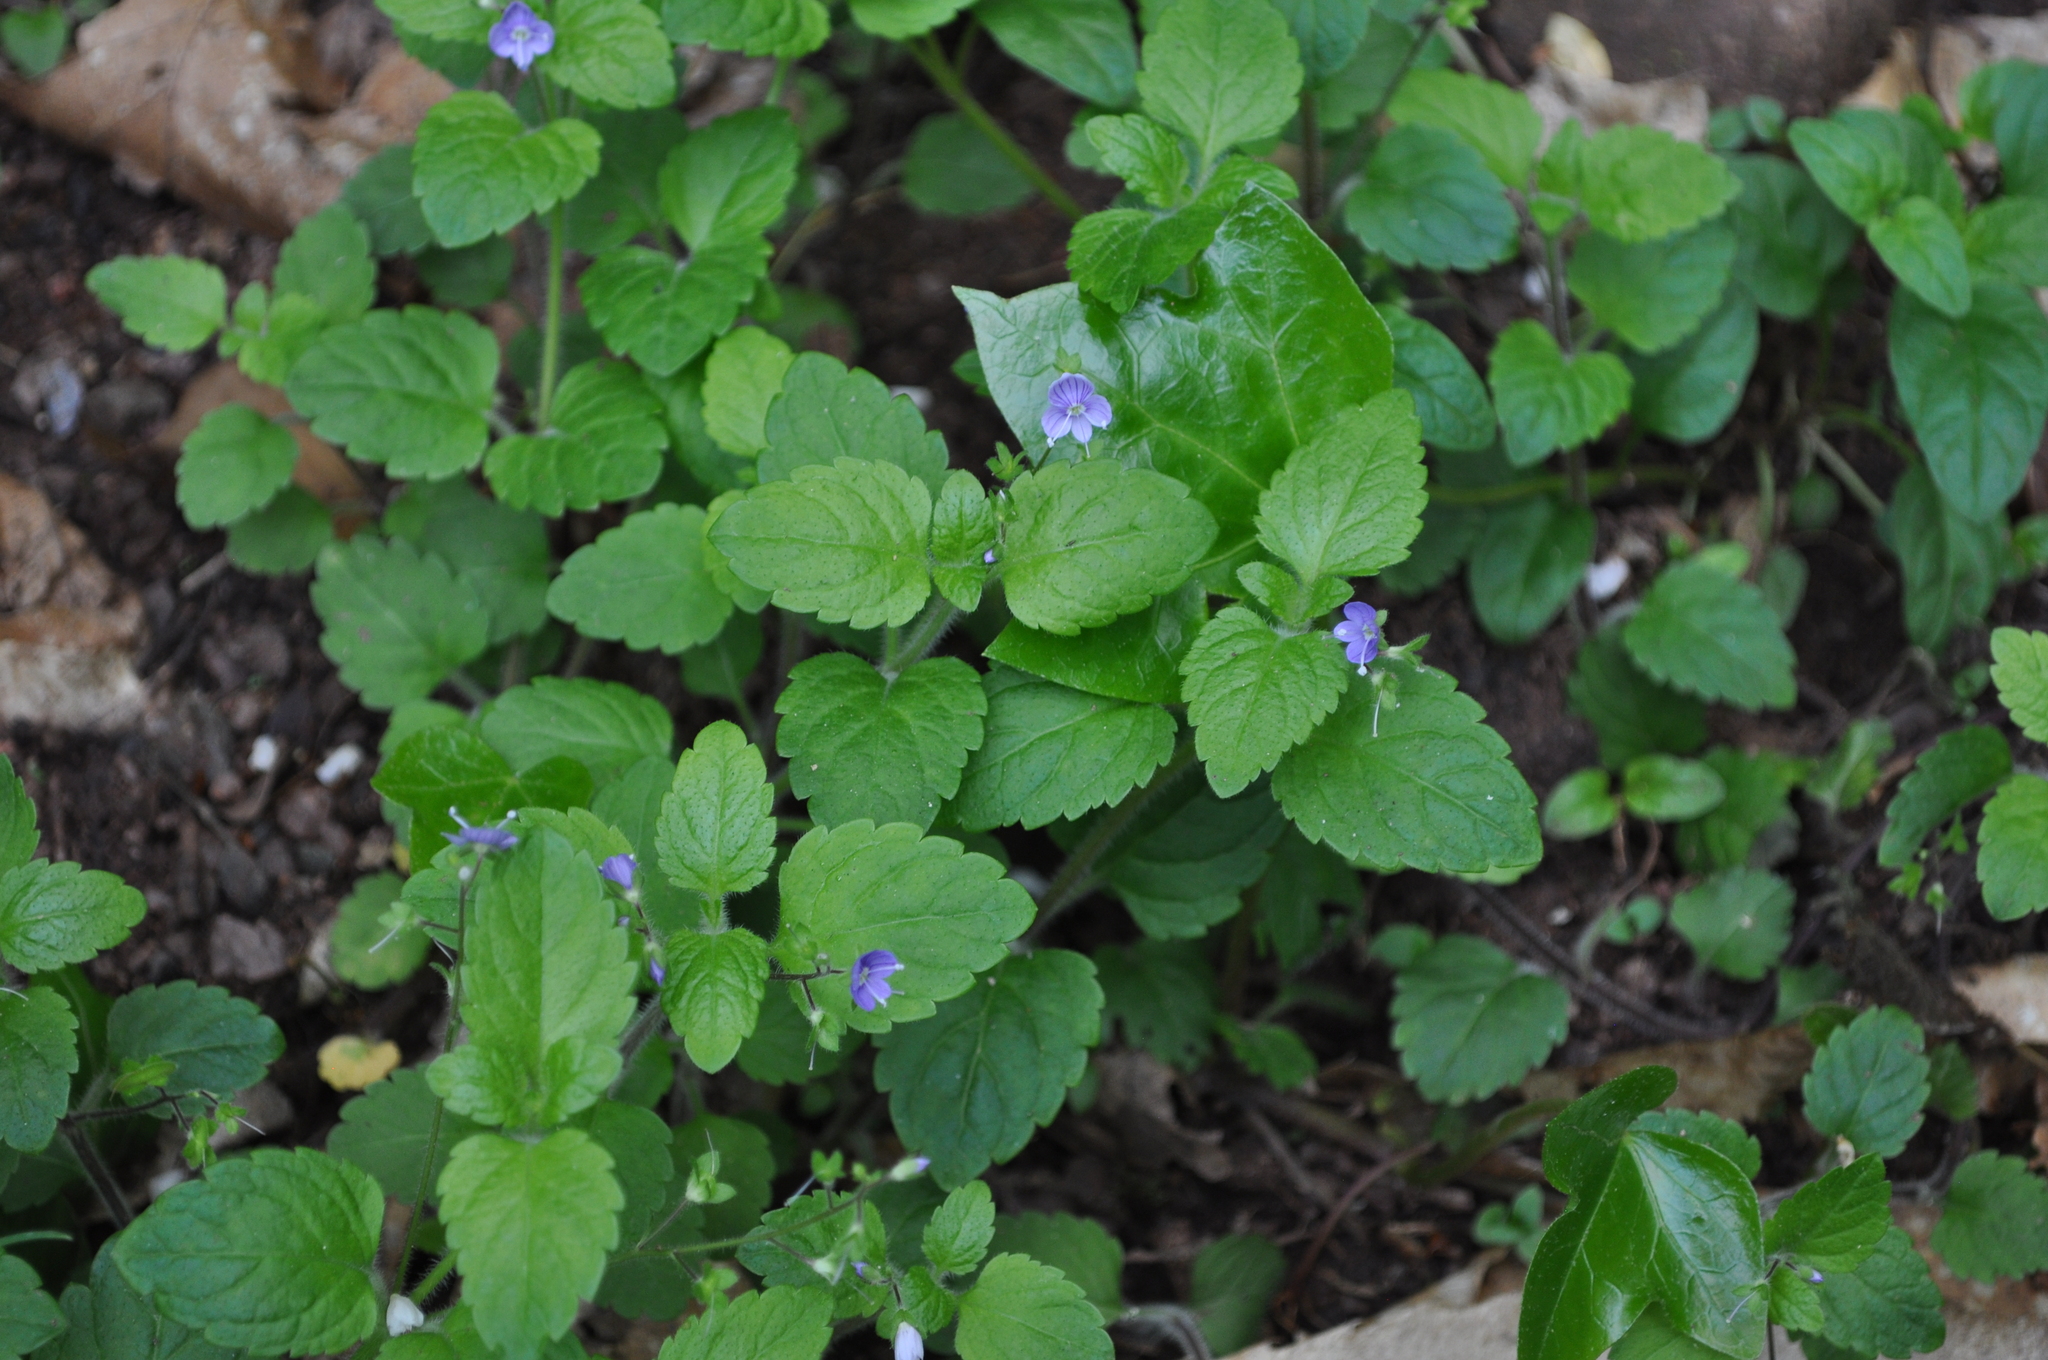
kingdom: Plantae
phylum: Tracheophyta
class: Magnoliopsida
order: Lamiales
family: Plantaginaceae
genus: Veronica
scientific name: Veronica montana
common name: Wood speedwell
